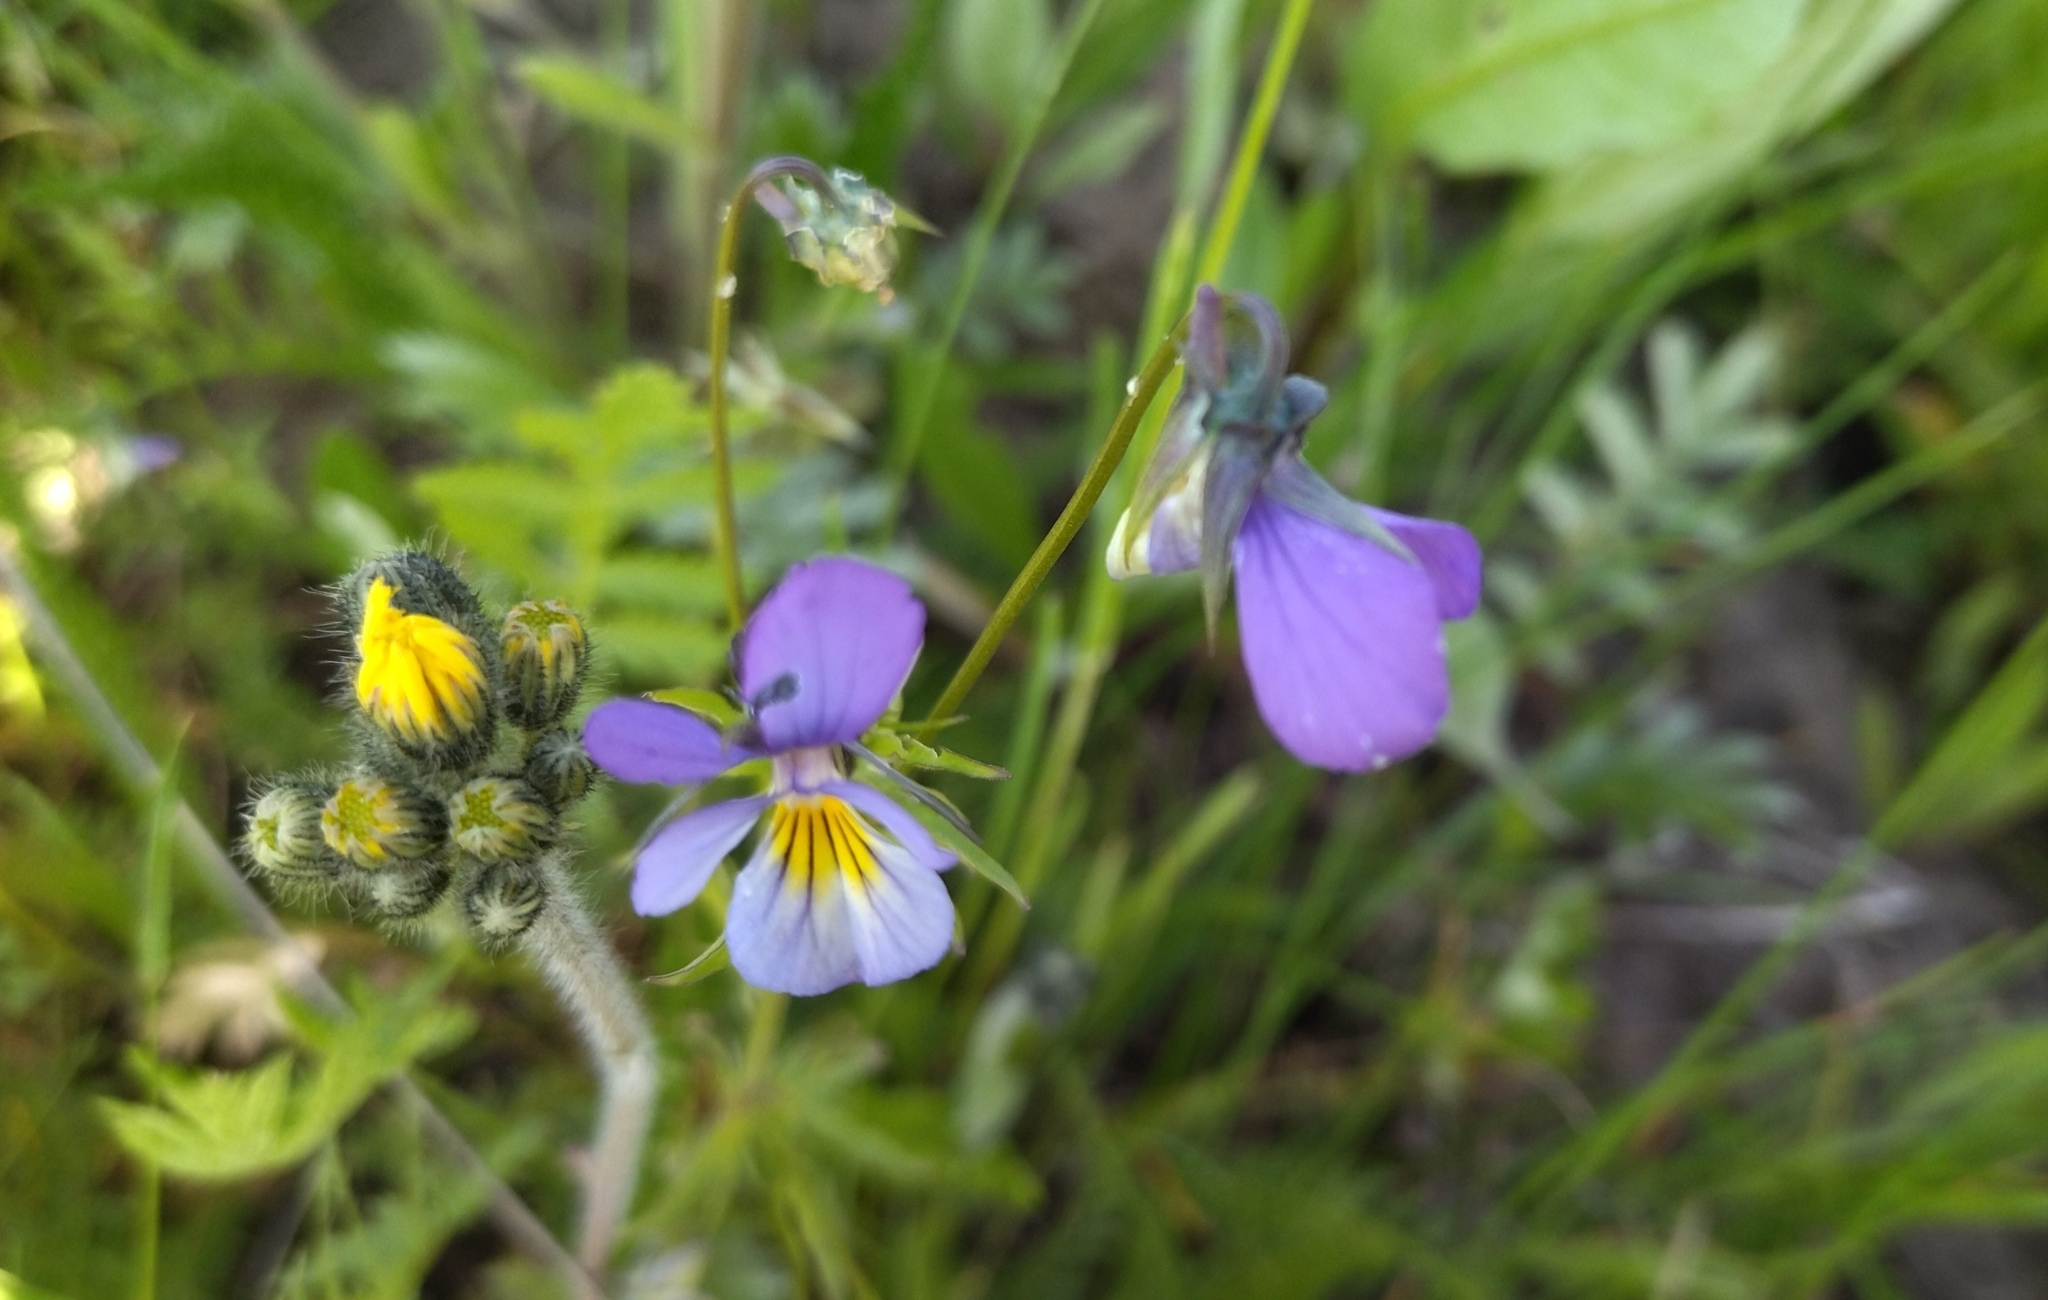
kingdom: Plantae
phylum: Tracheophyta
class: Magnoliopsida
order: Malpighiales
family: Violaceae
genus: Viola
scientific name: Viola tricolor
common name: Pansy
